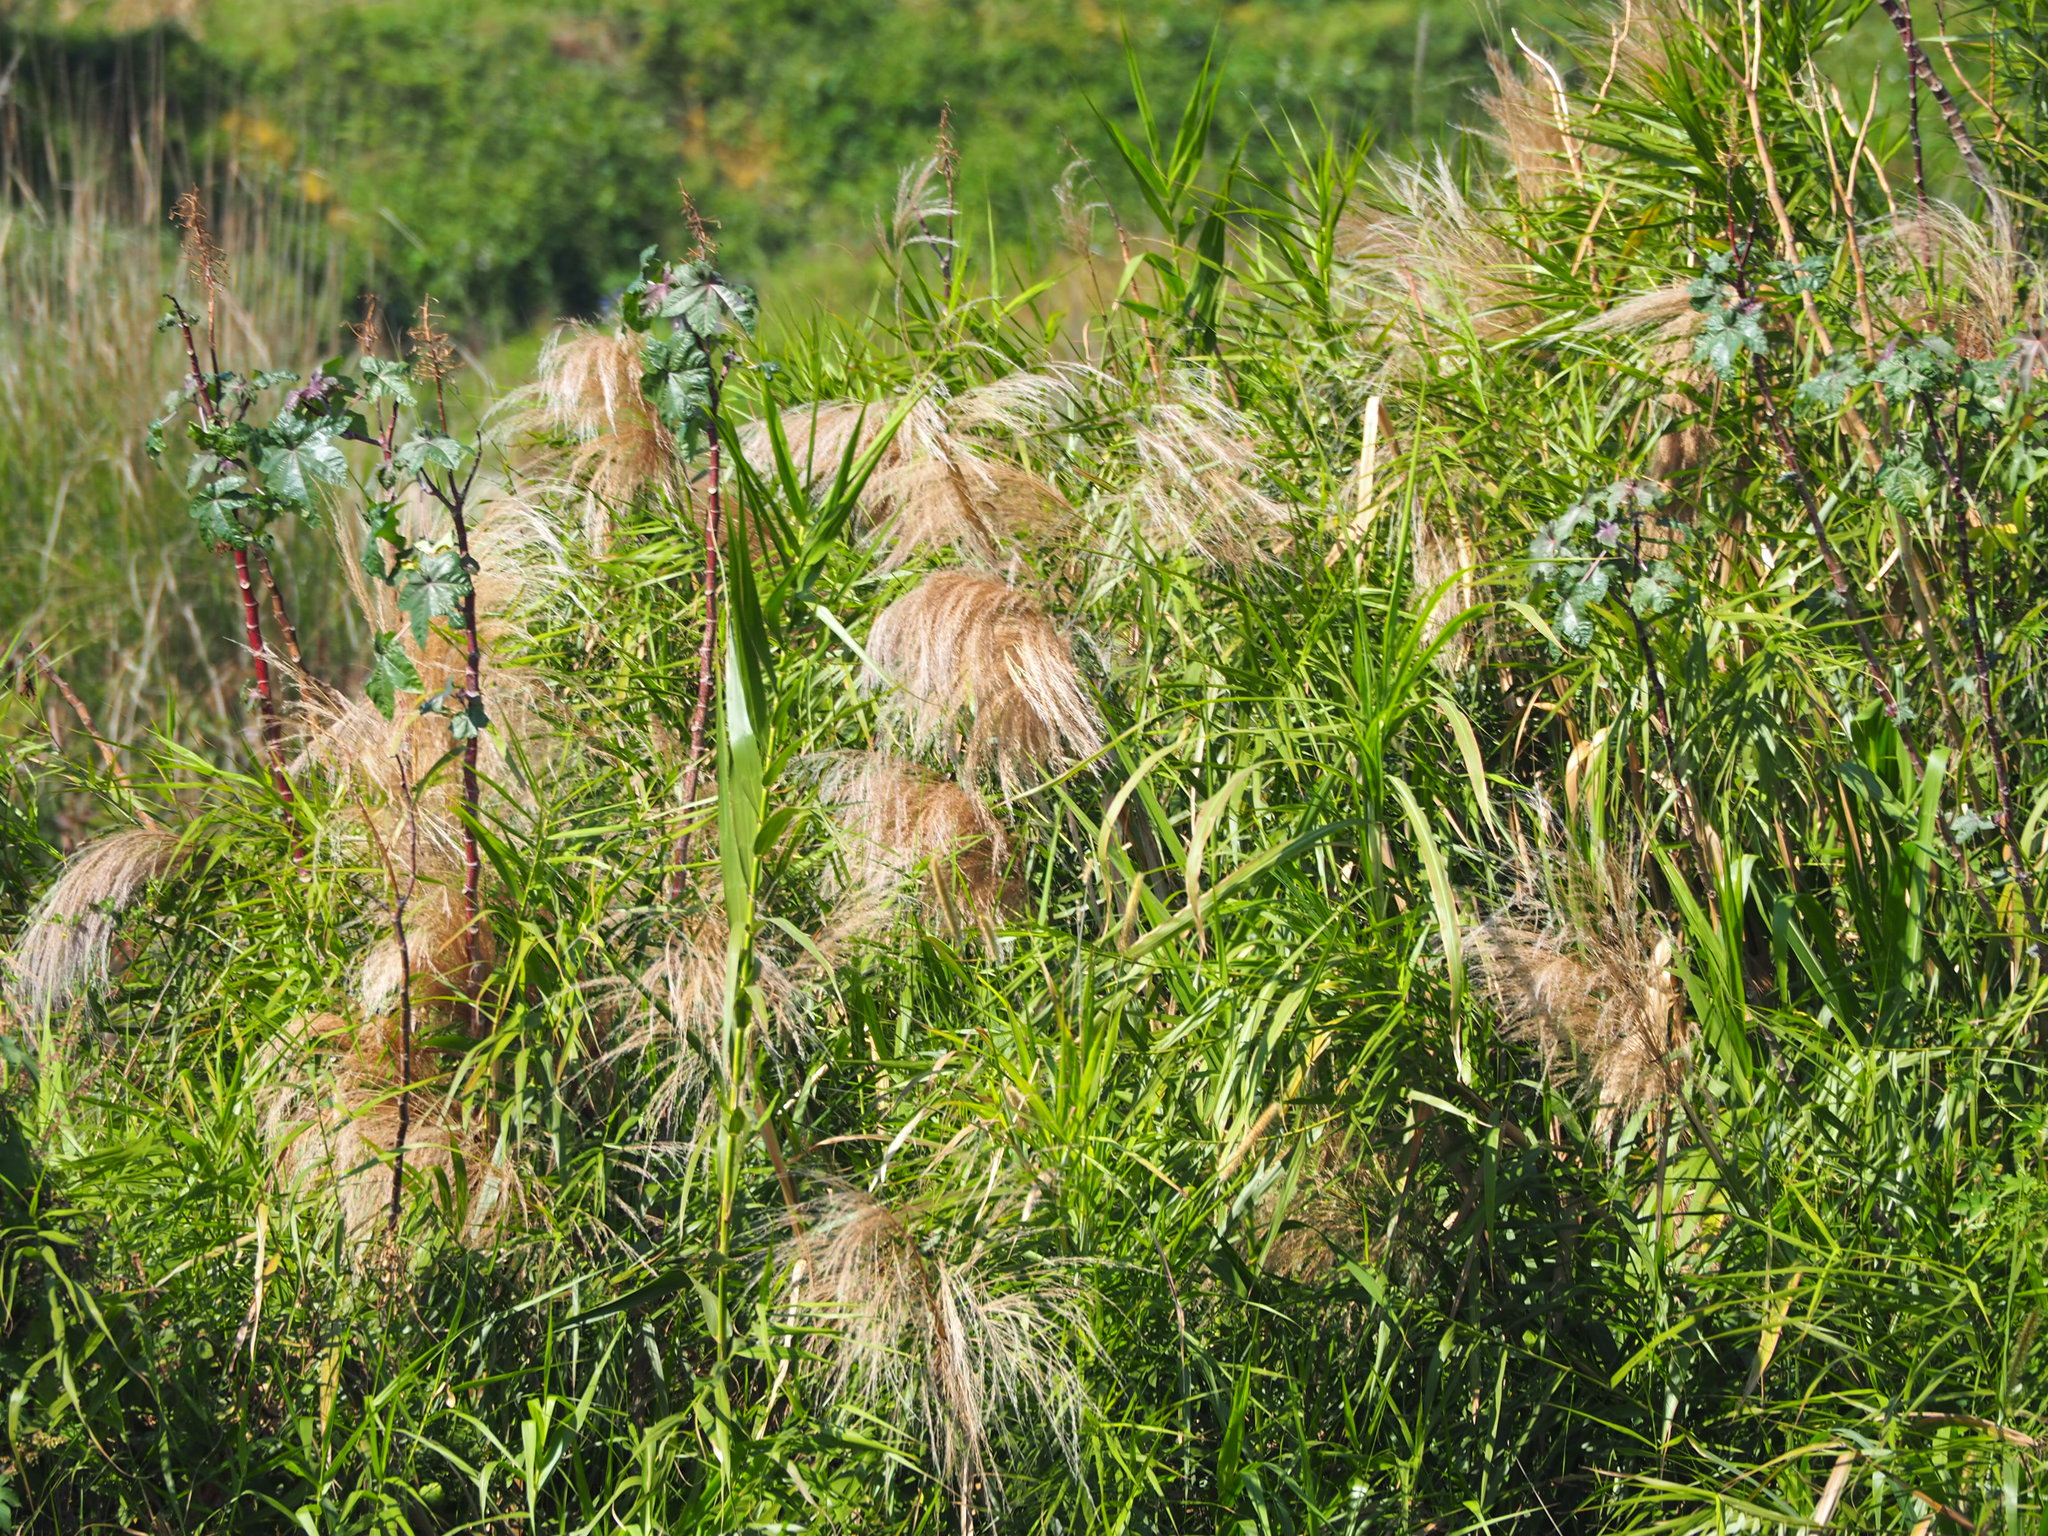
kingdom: Plantae
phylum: Tracheophyta
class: Liliopsida
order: Poales
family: Poaceae
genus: Phragmites
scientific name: Phragmites karka
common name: Tropical reed
